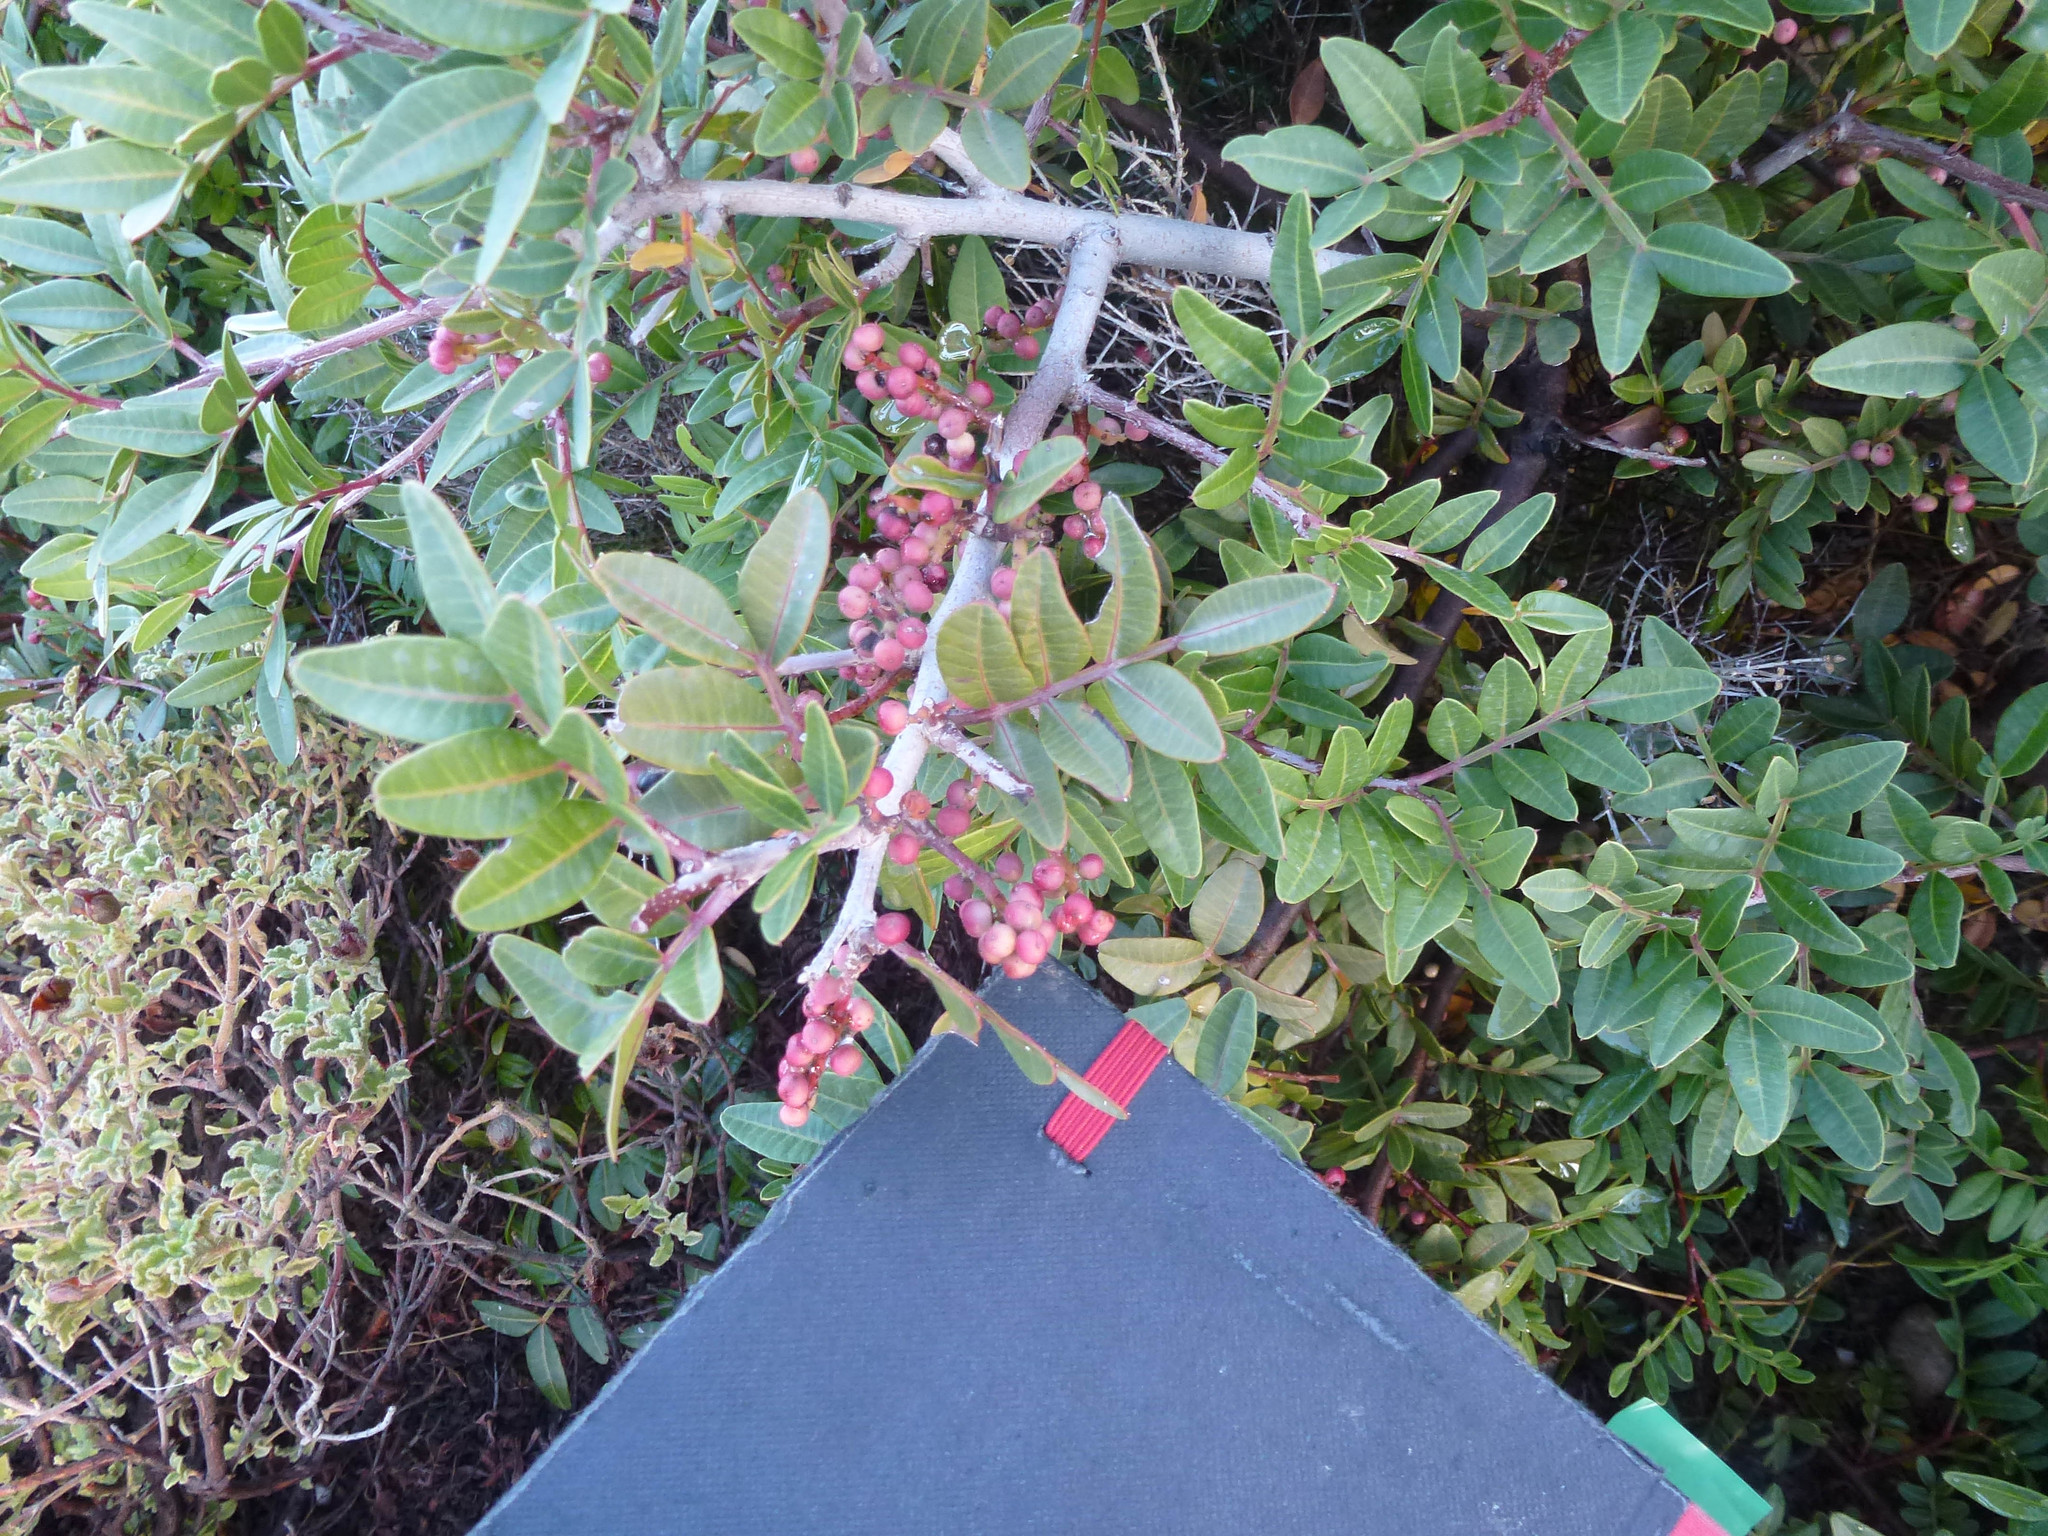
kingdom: Plantae
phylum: Tracheophyta
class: Magnoliopsida
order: Sapindales
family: Anacardiaceae
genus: Pistacia
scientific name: Pistacia lentiscus
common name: Lentisk
